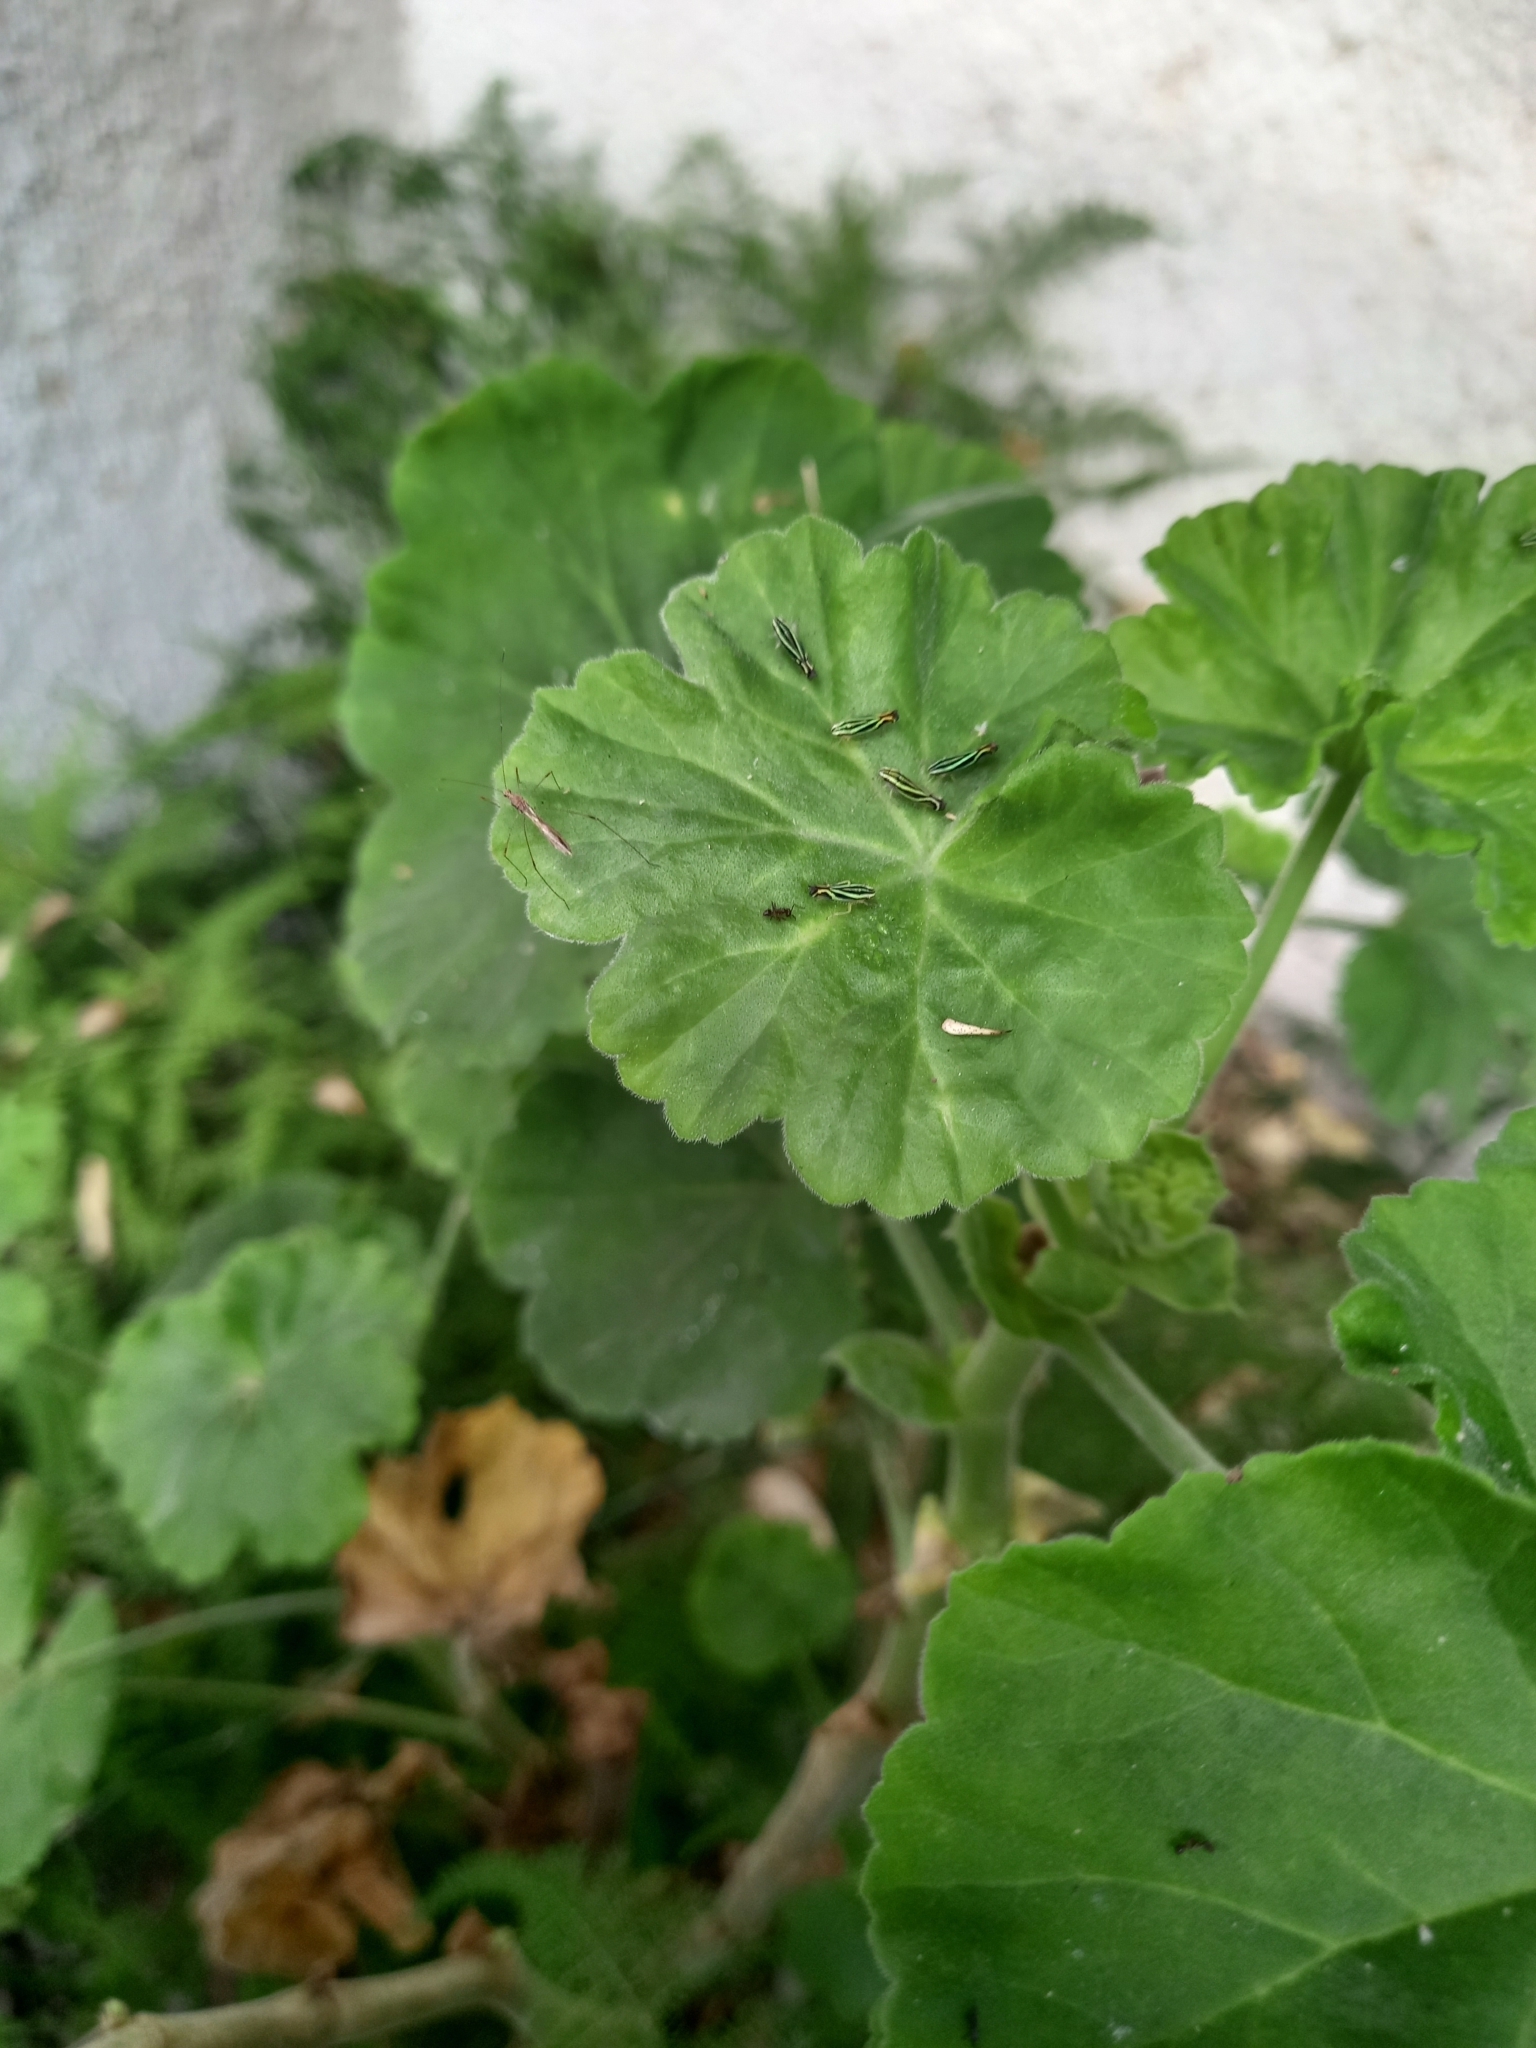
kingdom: Animalia
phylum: Arthropoda
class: Insecta
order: Hemiptera
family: Cicadellidae
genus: Sibovia
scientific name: Sibovia sagata
